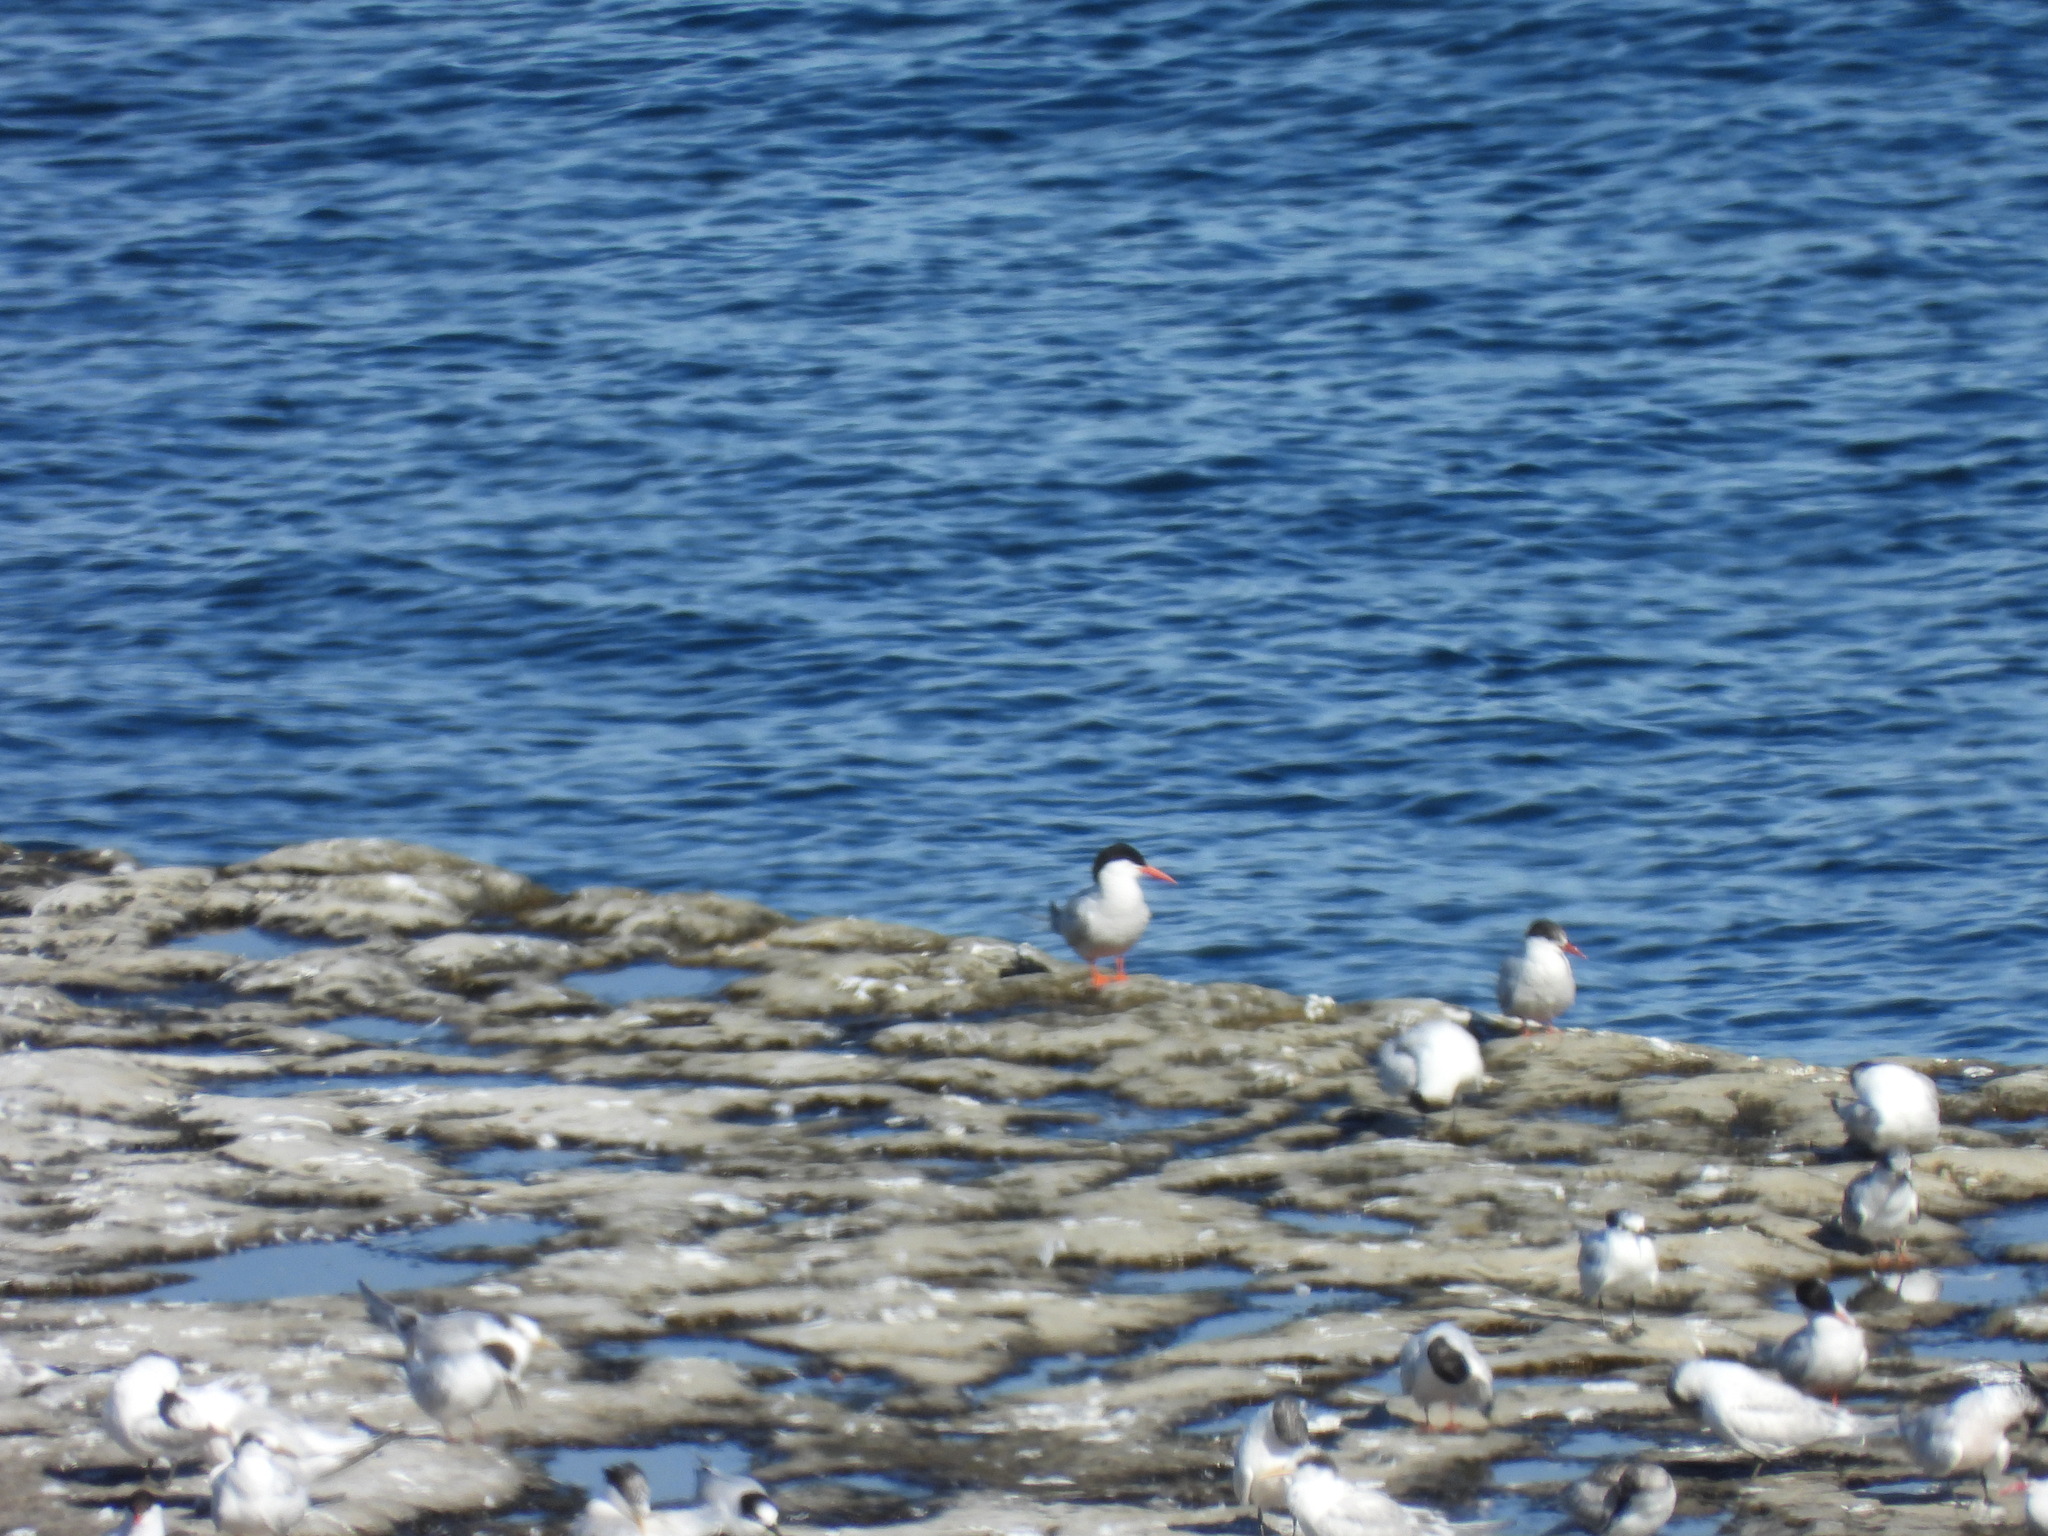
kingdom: Animalia
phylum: Chordata
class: Aves
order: Charadriiformes
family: Laridae
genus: Sterna
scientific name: Sterna hirundinacea
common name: South american tern
